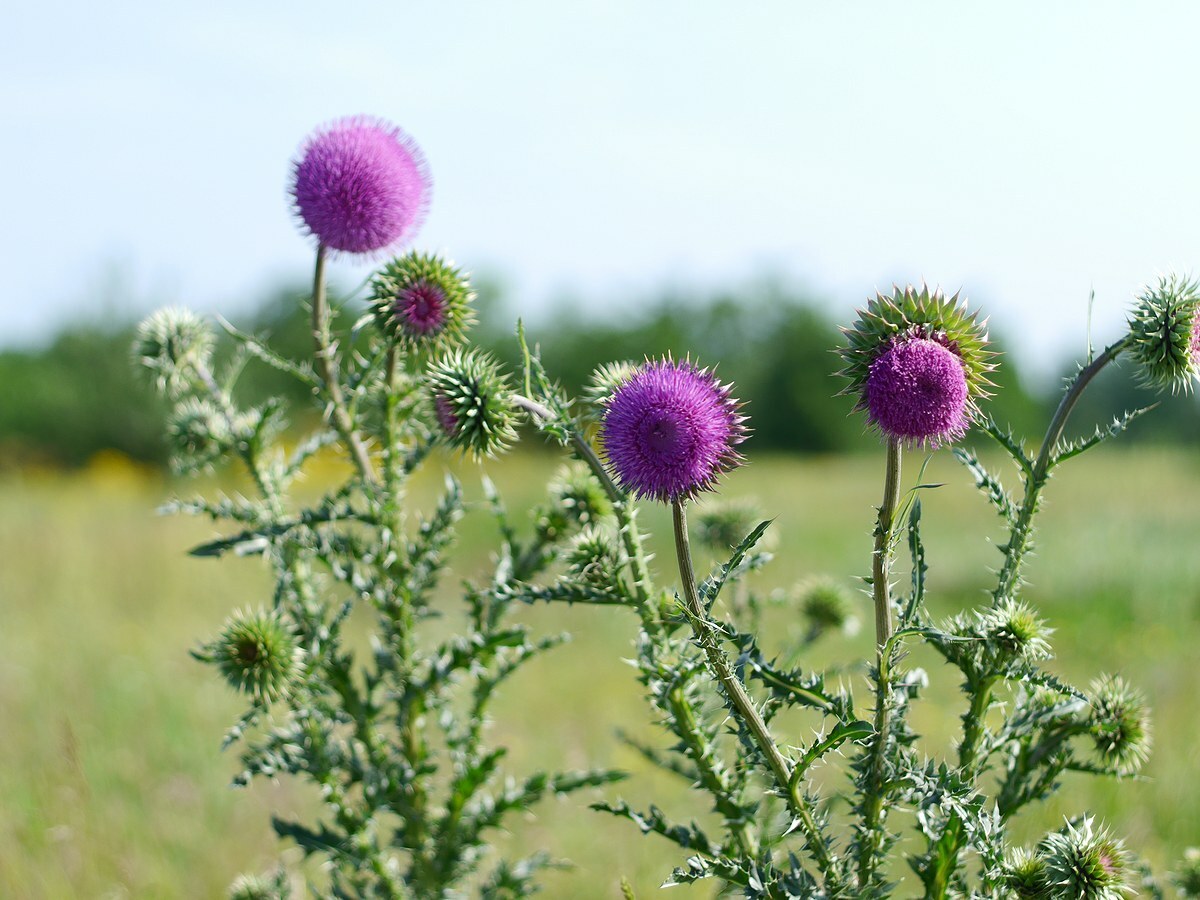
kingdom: Plantae
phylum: Tracheophyta
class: Magnoliopsida
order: Asterales
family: Asteraceae
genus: Carduus
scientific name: Carduus nutans
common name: Musk thistle
